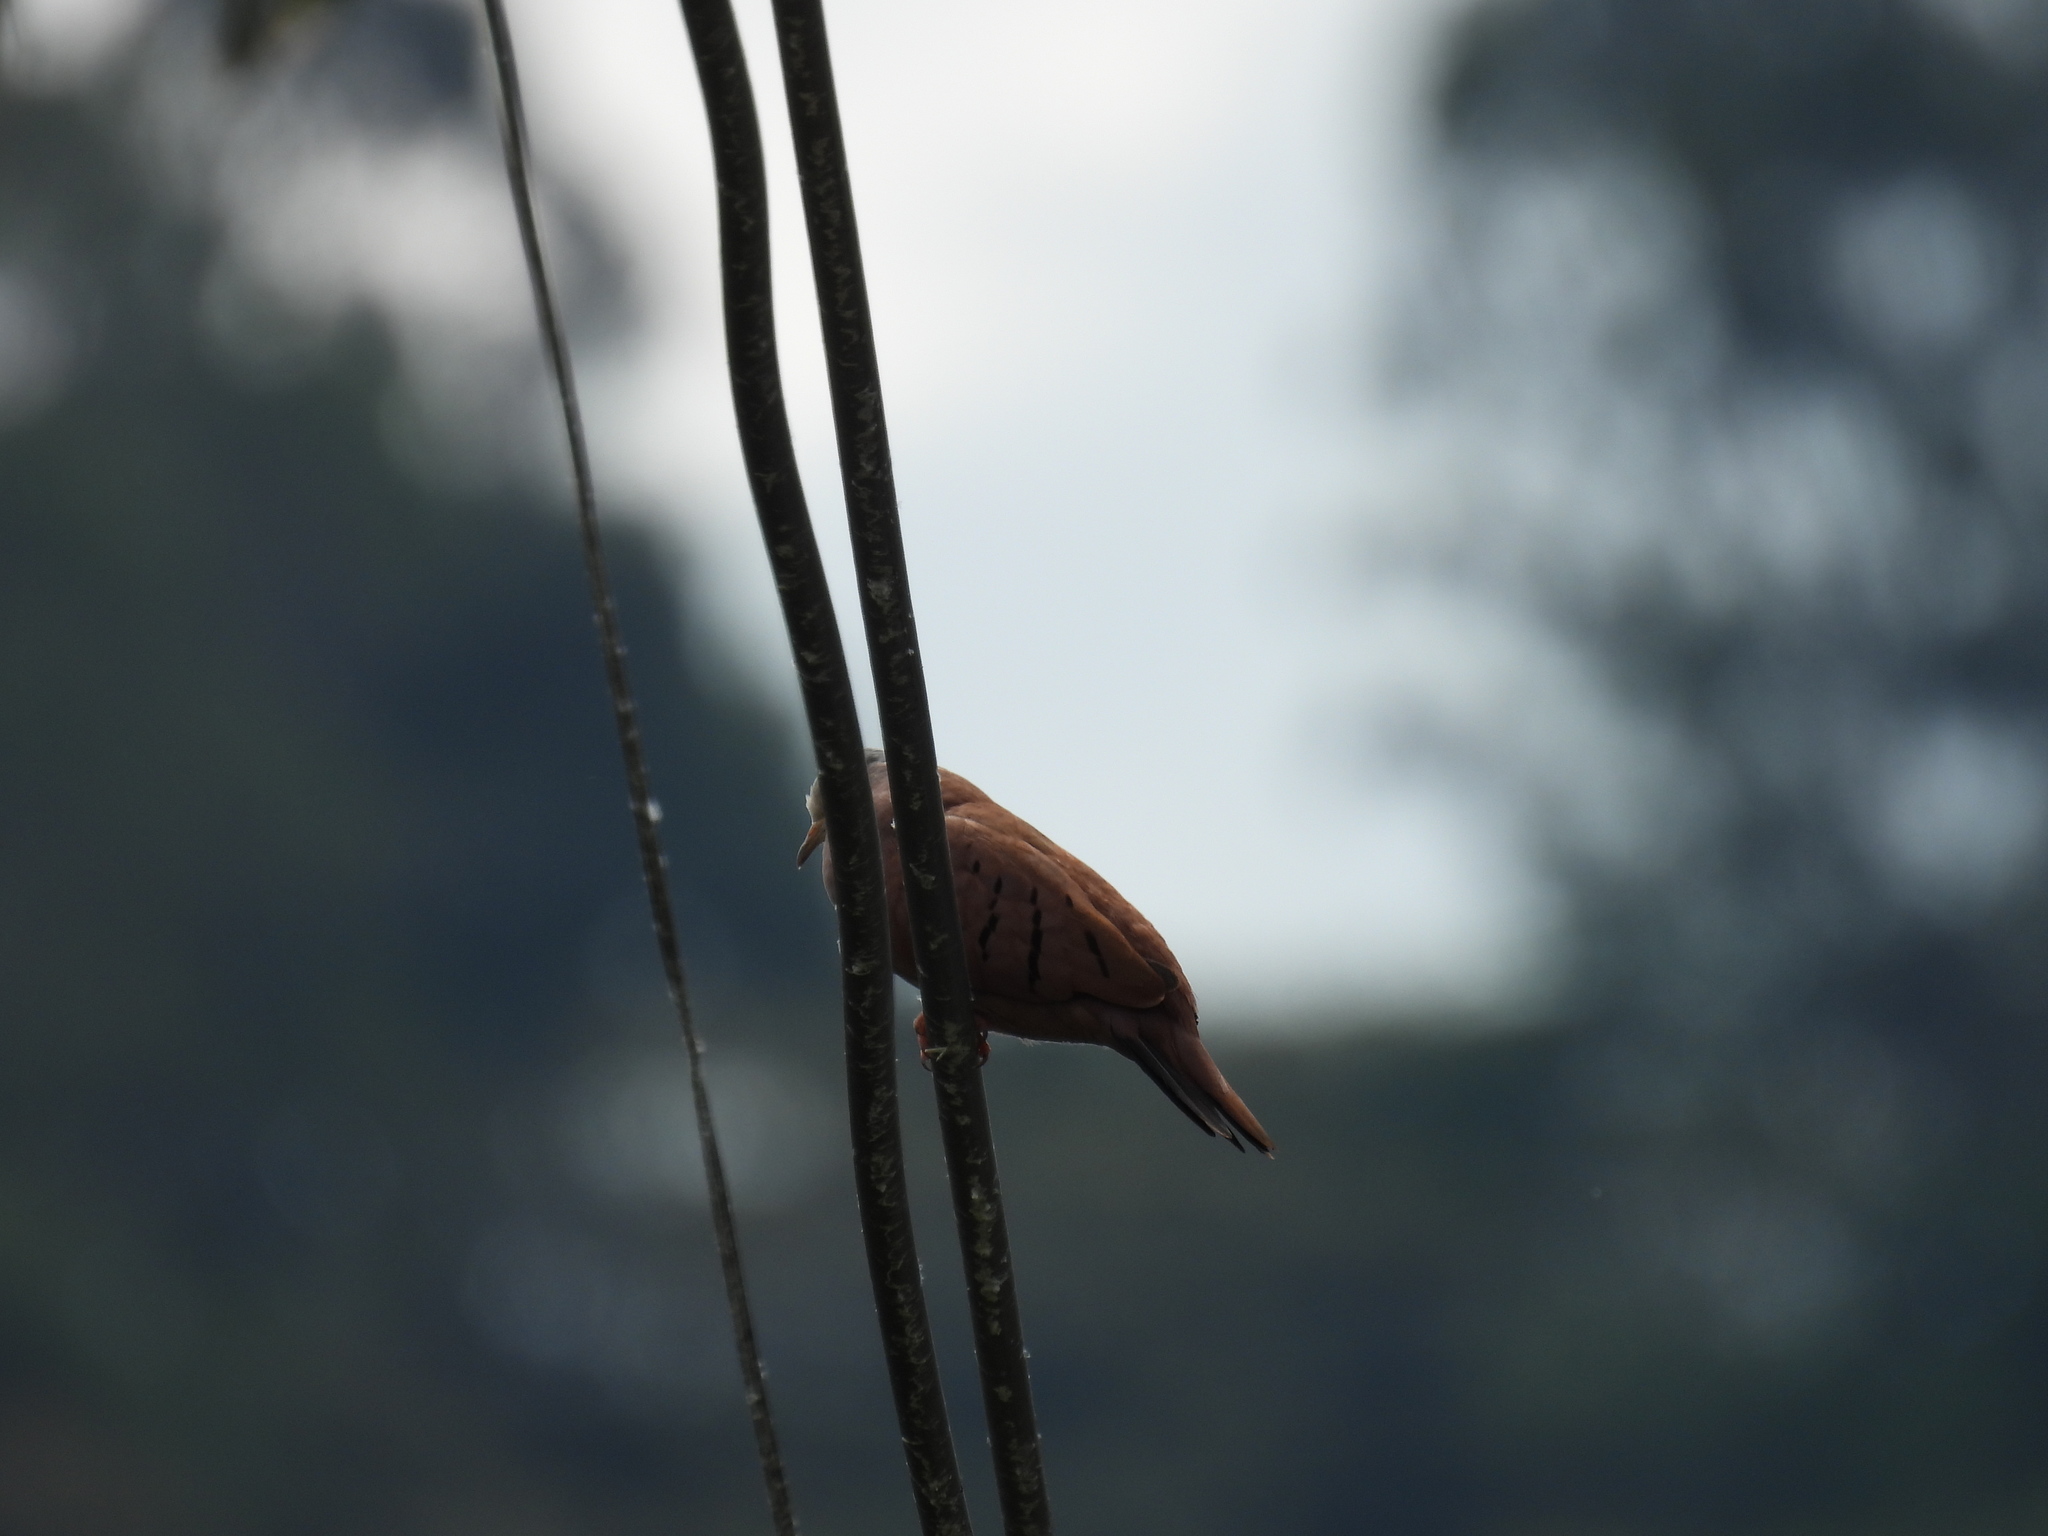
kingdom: Animalia
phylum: Chordata
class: Aves
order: Columbiformes
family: Columbidae
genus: Columbina
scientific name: Columbina talpacoti
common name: Ruddy ground dove
